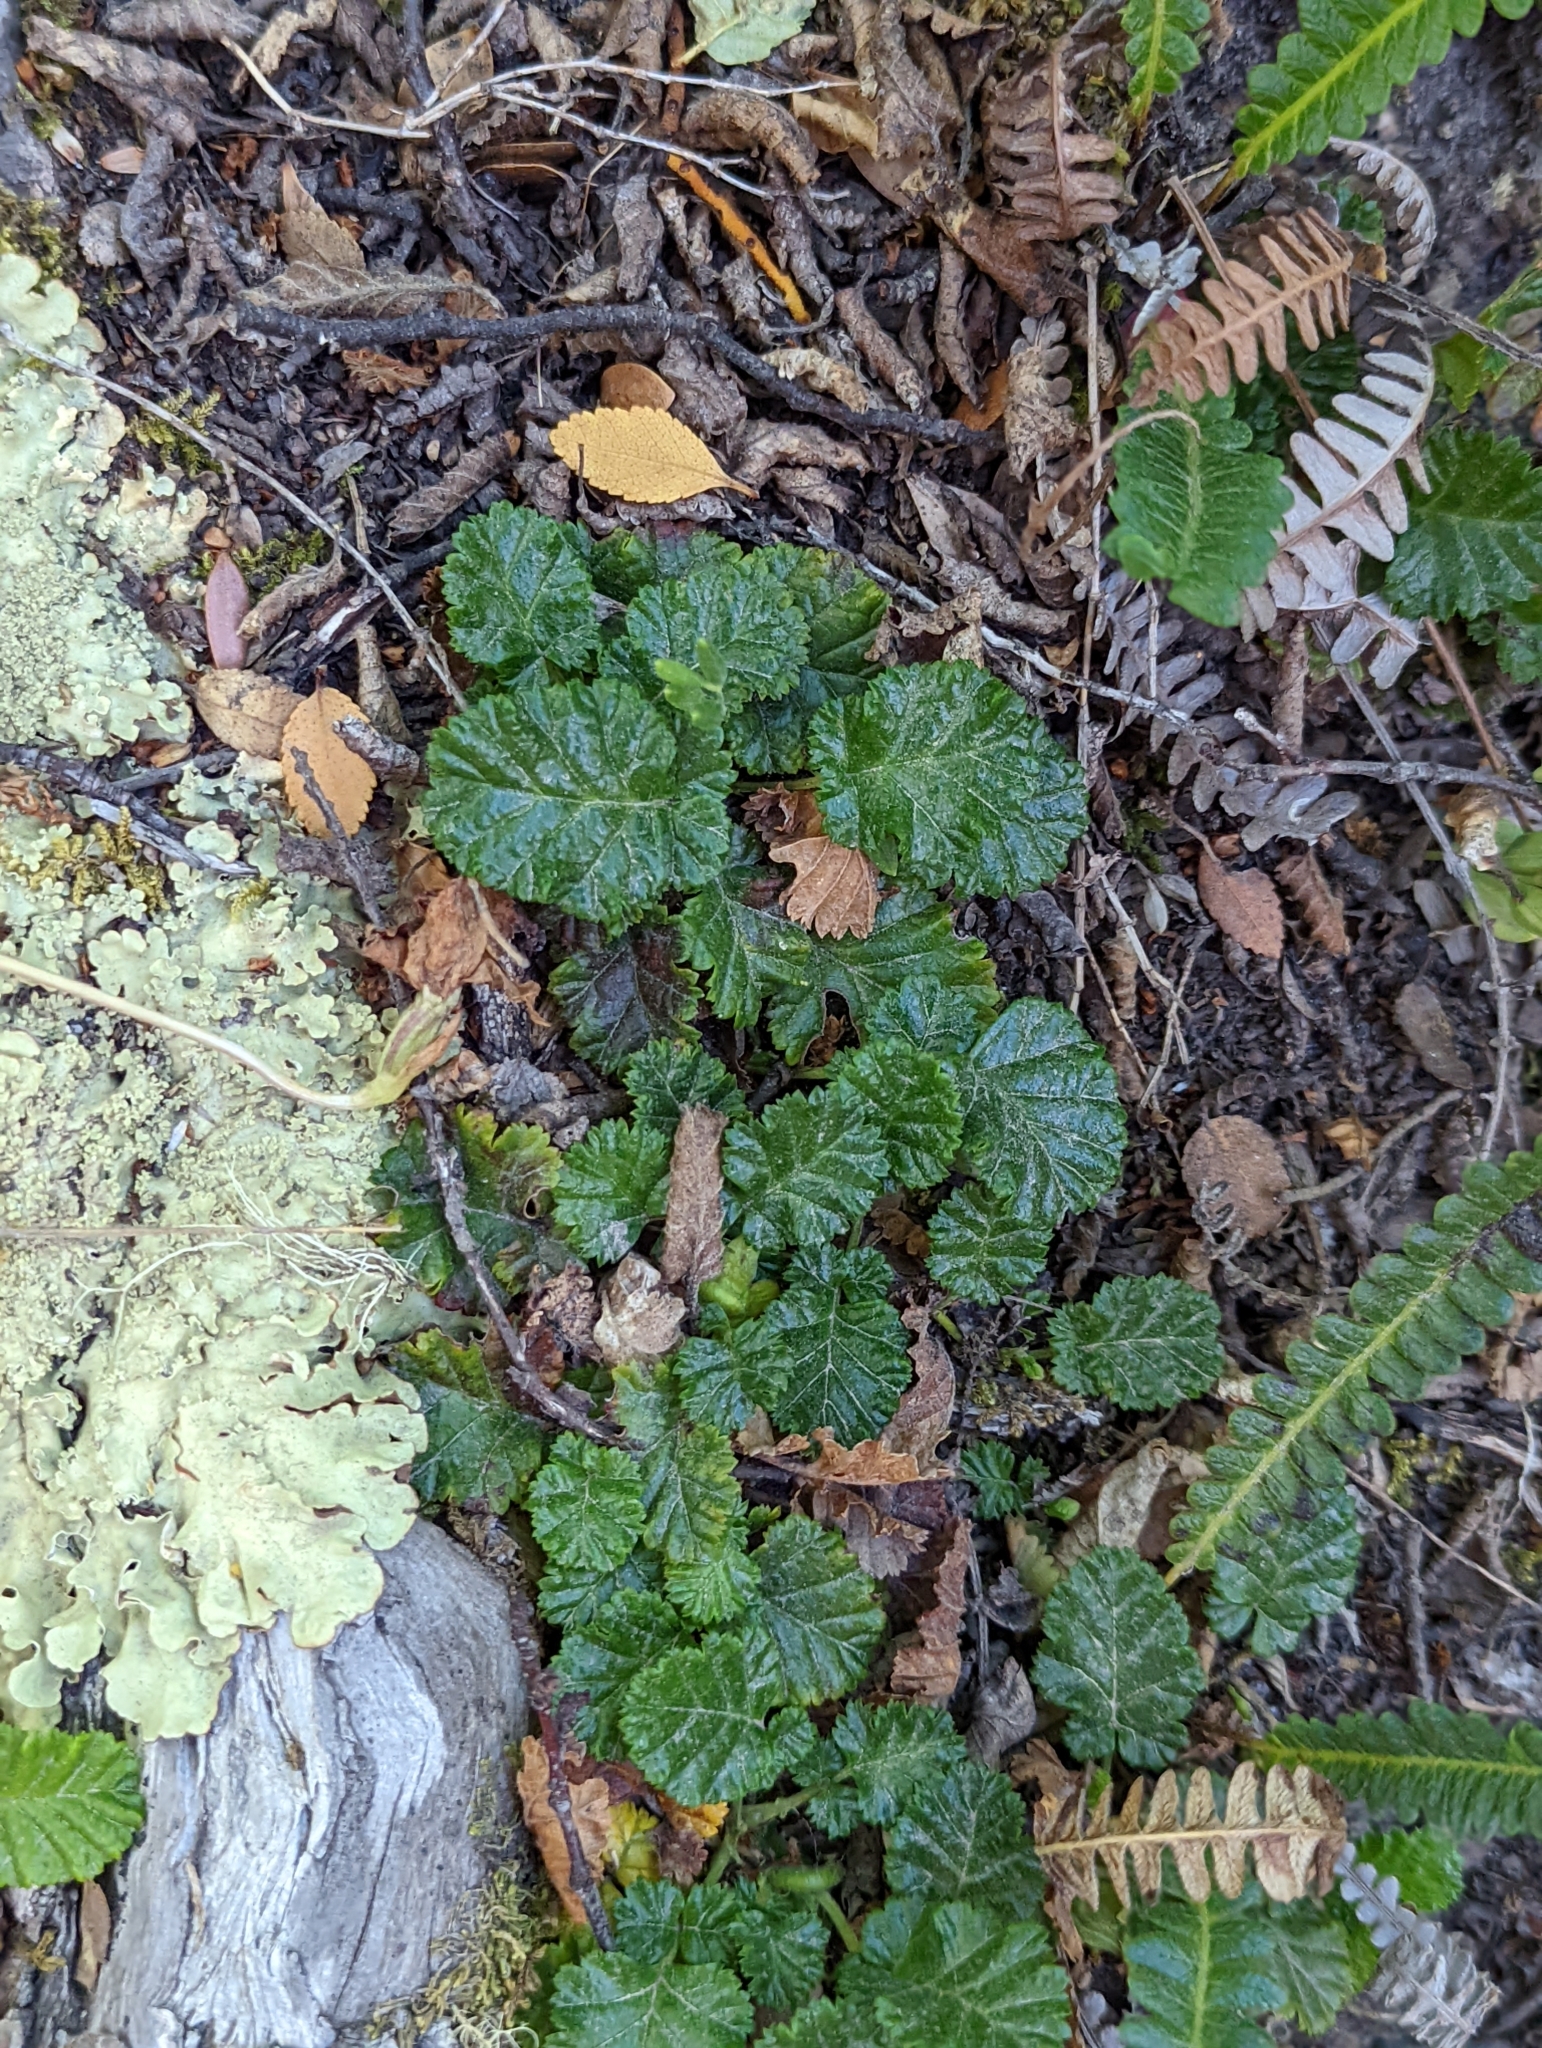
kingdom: Plantae
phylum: Tracheophyta
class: Magnoliopsida
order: Rosales
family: Rosaceae
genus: Rubus
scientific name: Rubus geoides
